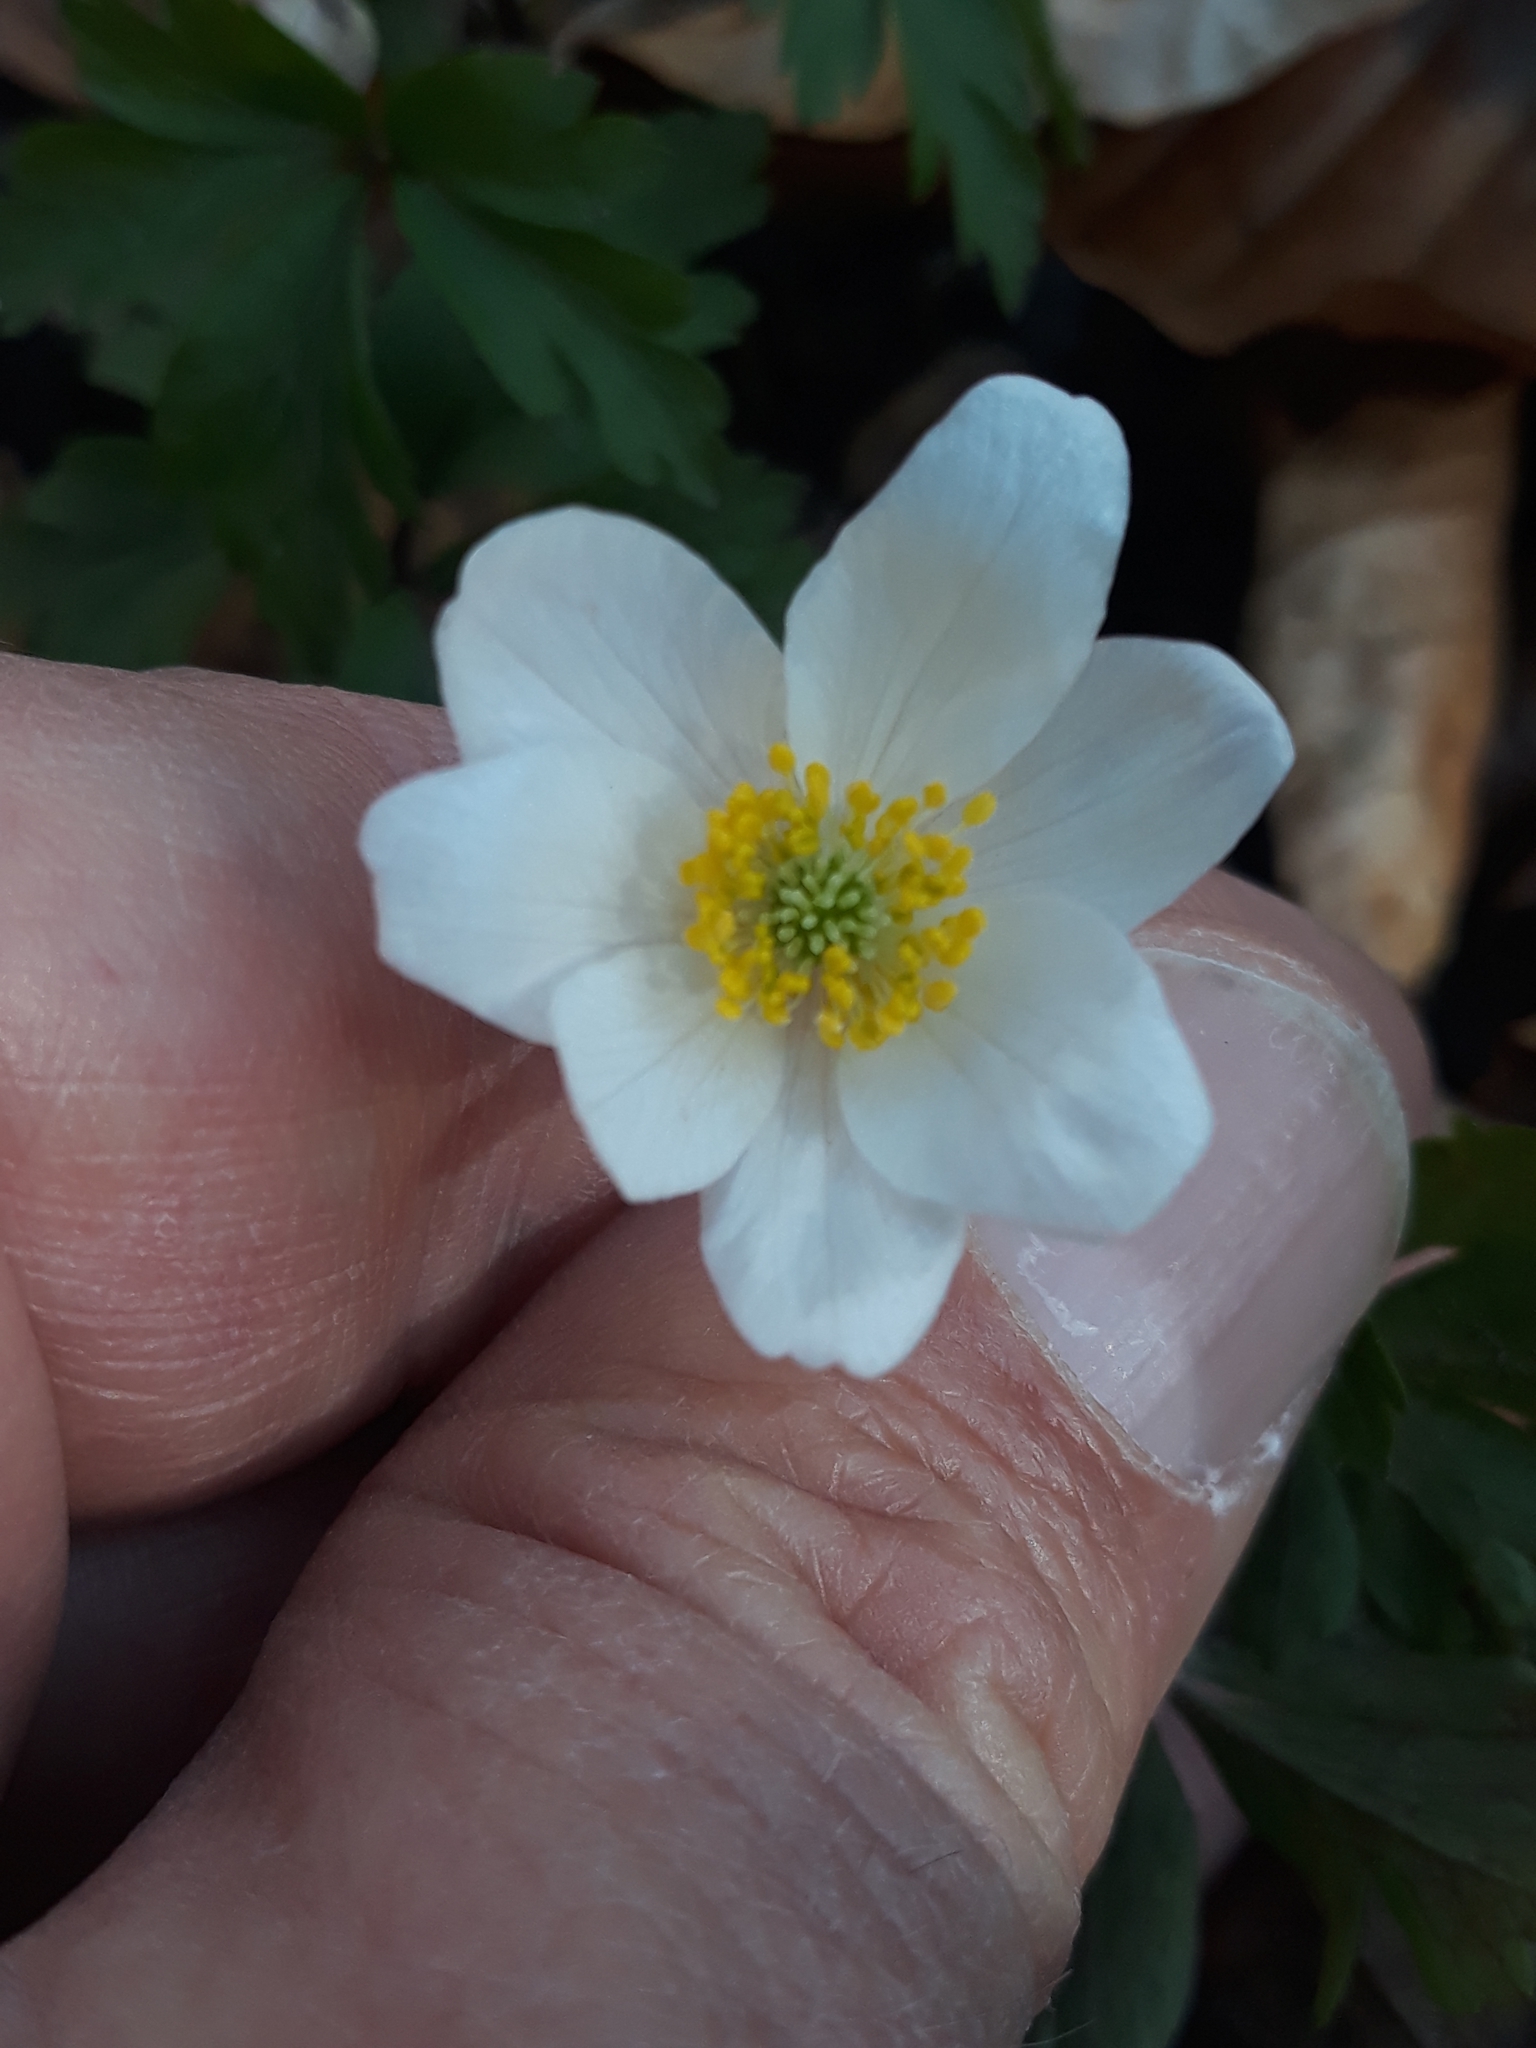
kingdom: Plantae
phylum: Tracheophyta
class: Magnoliopsida
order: Ranunculales
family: Ranunculaceae
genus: Anemone
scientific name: Anemone nemorosa
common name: Wood anemone
